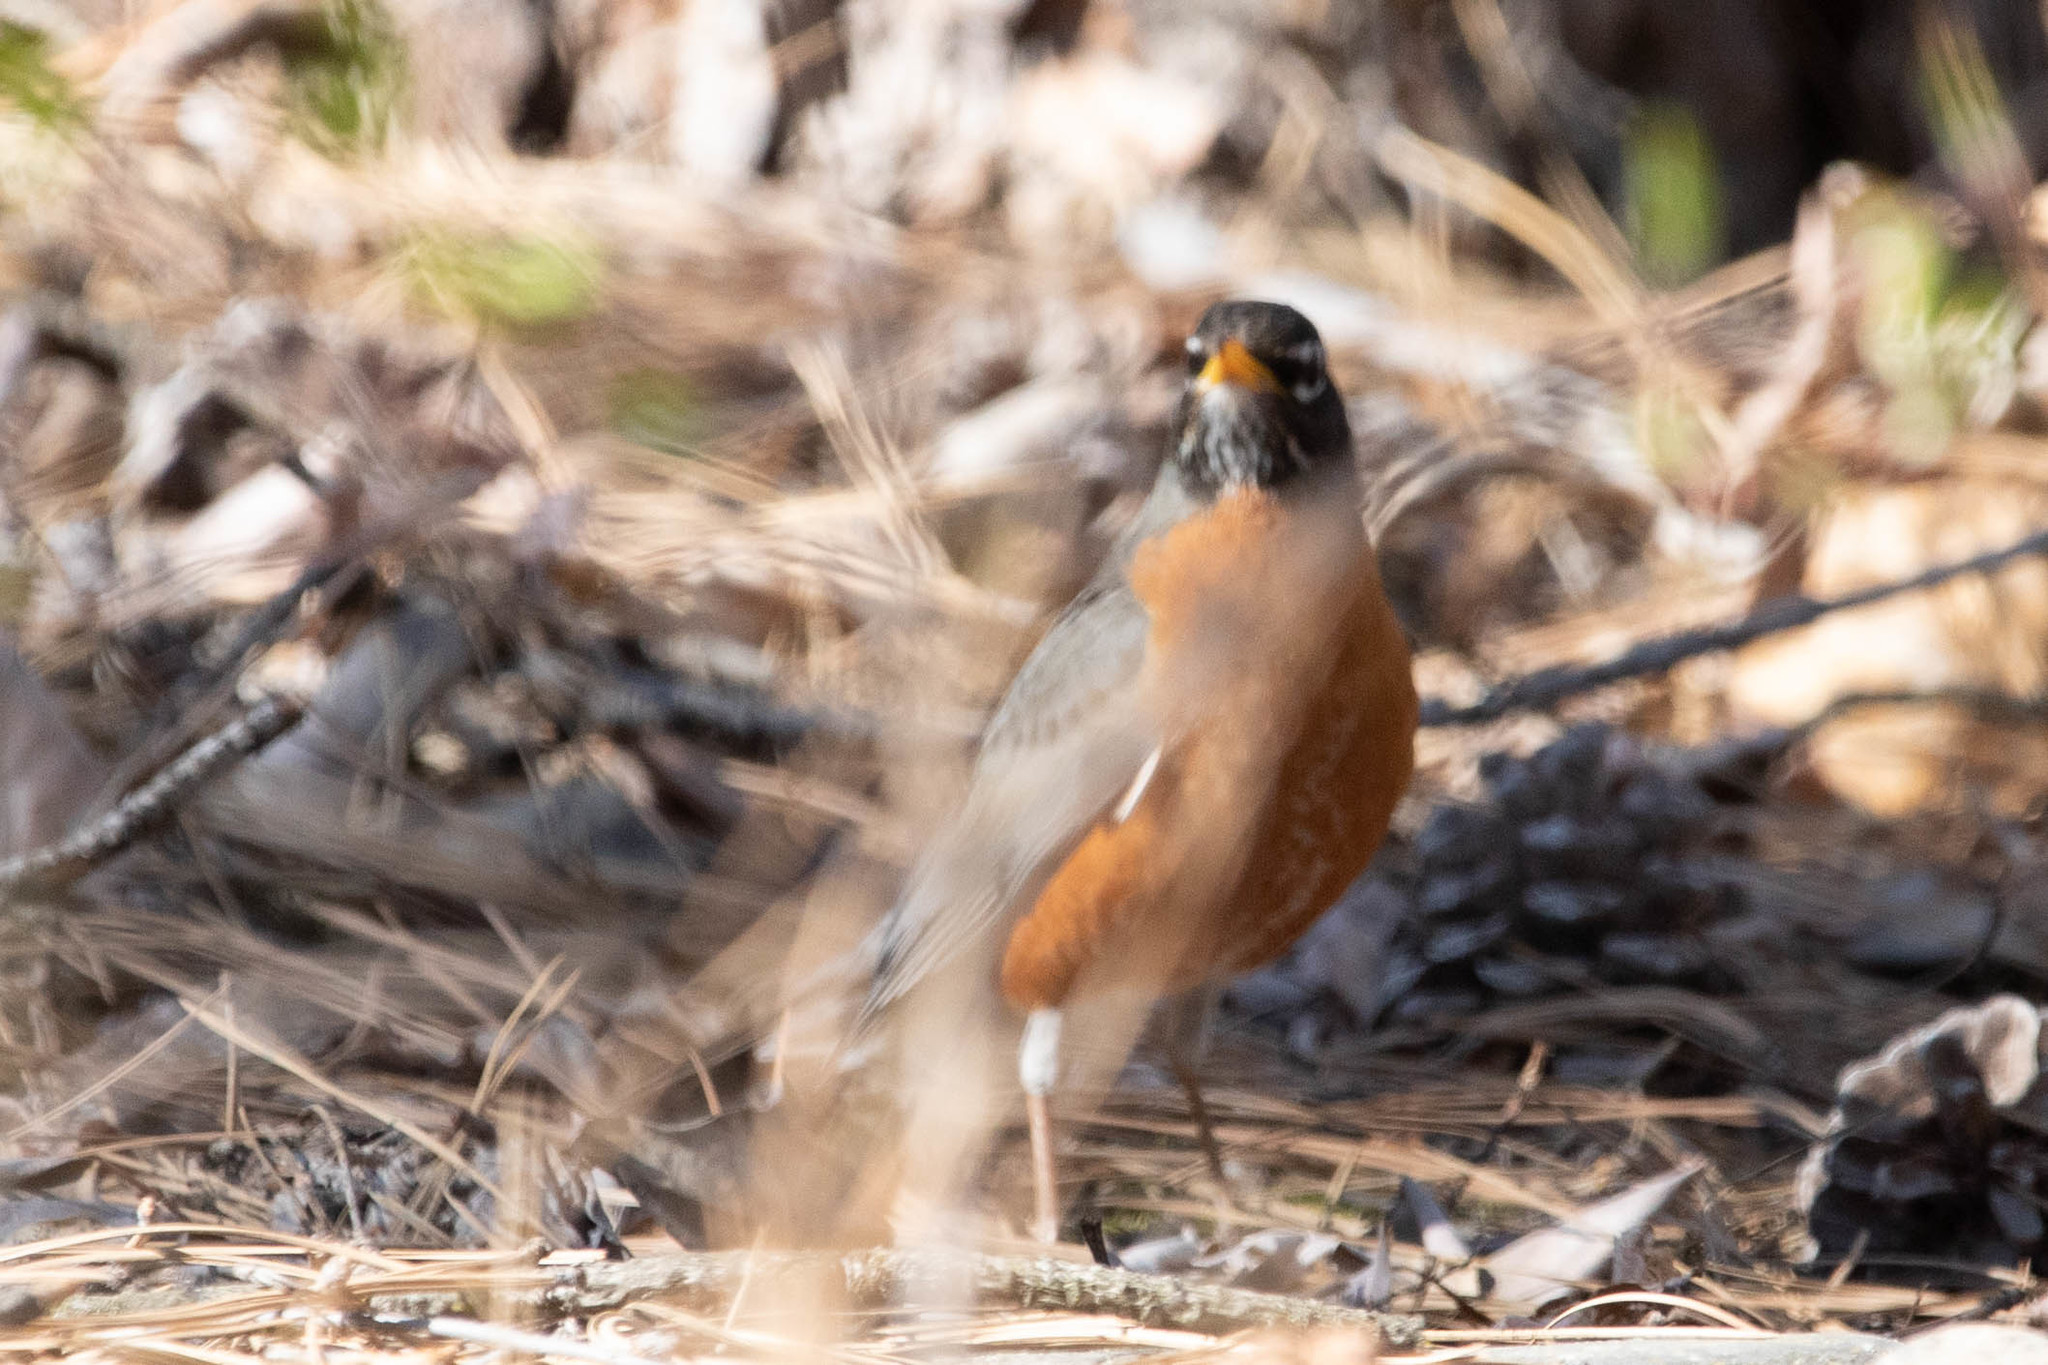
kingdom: Animalia
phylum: Chordata
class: Aves
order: Passeriformes
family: Turdidae
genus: Turdus
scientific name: Turdus migratorius
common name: American robin
